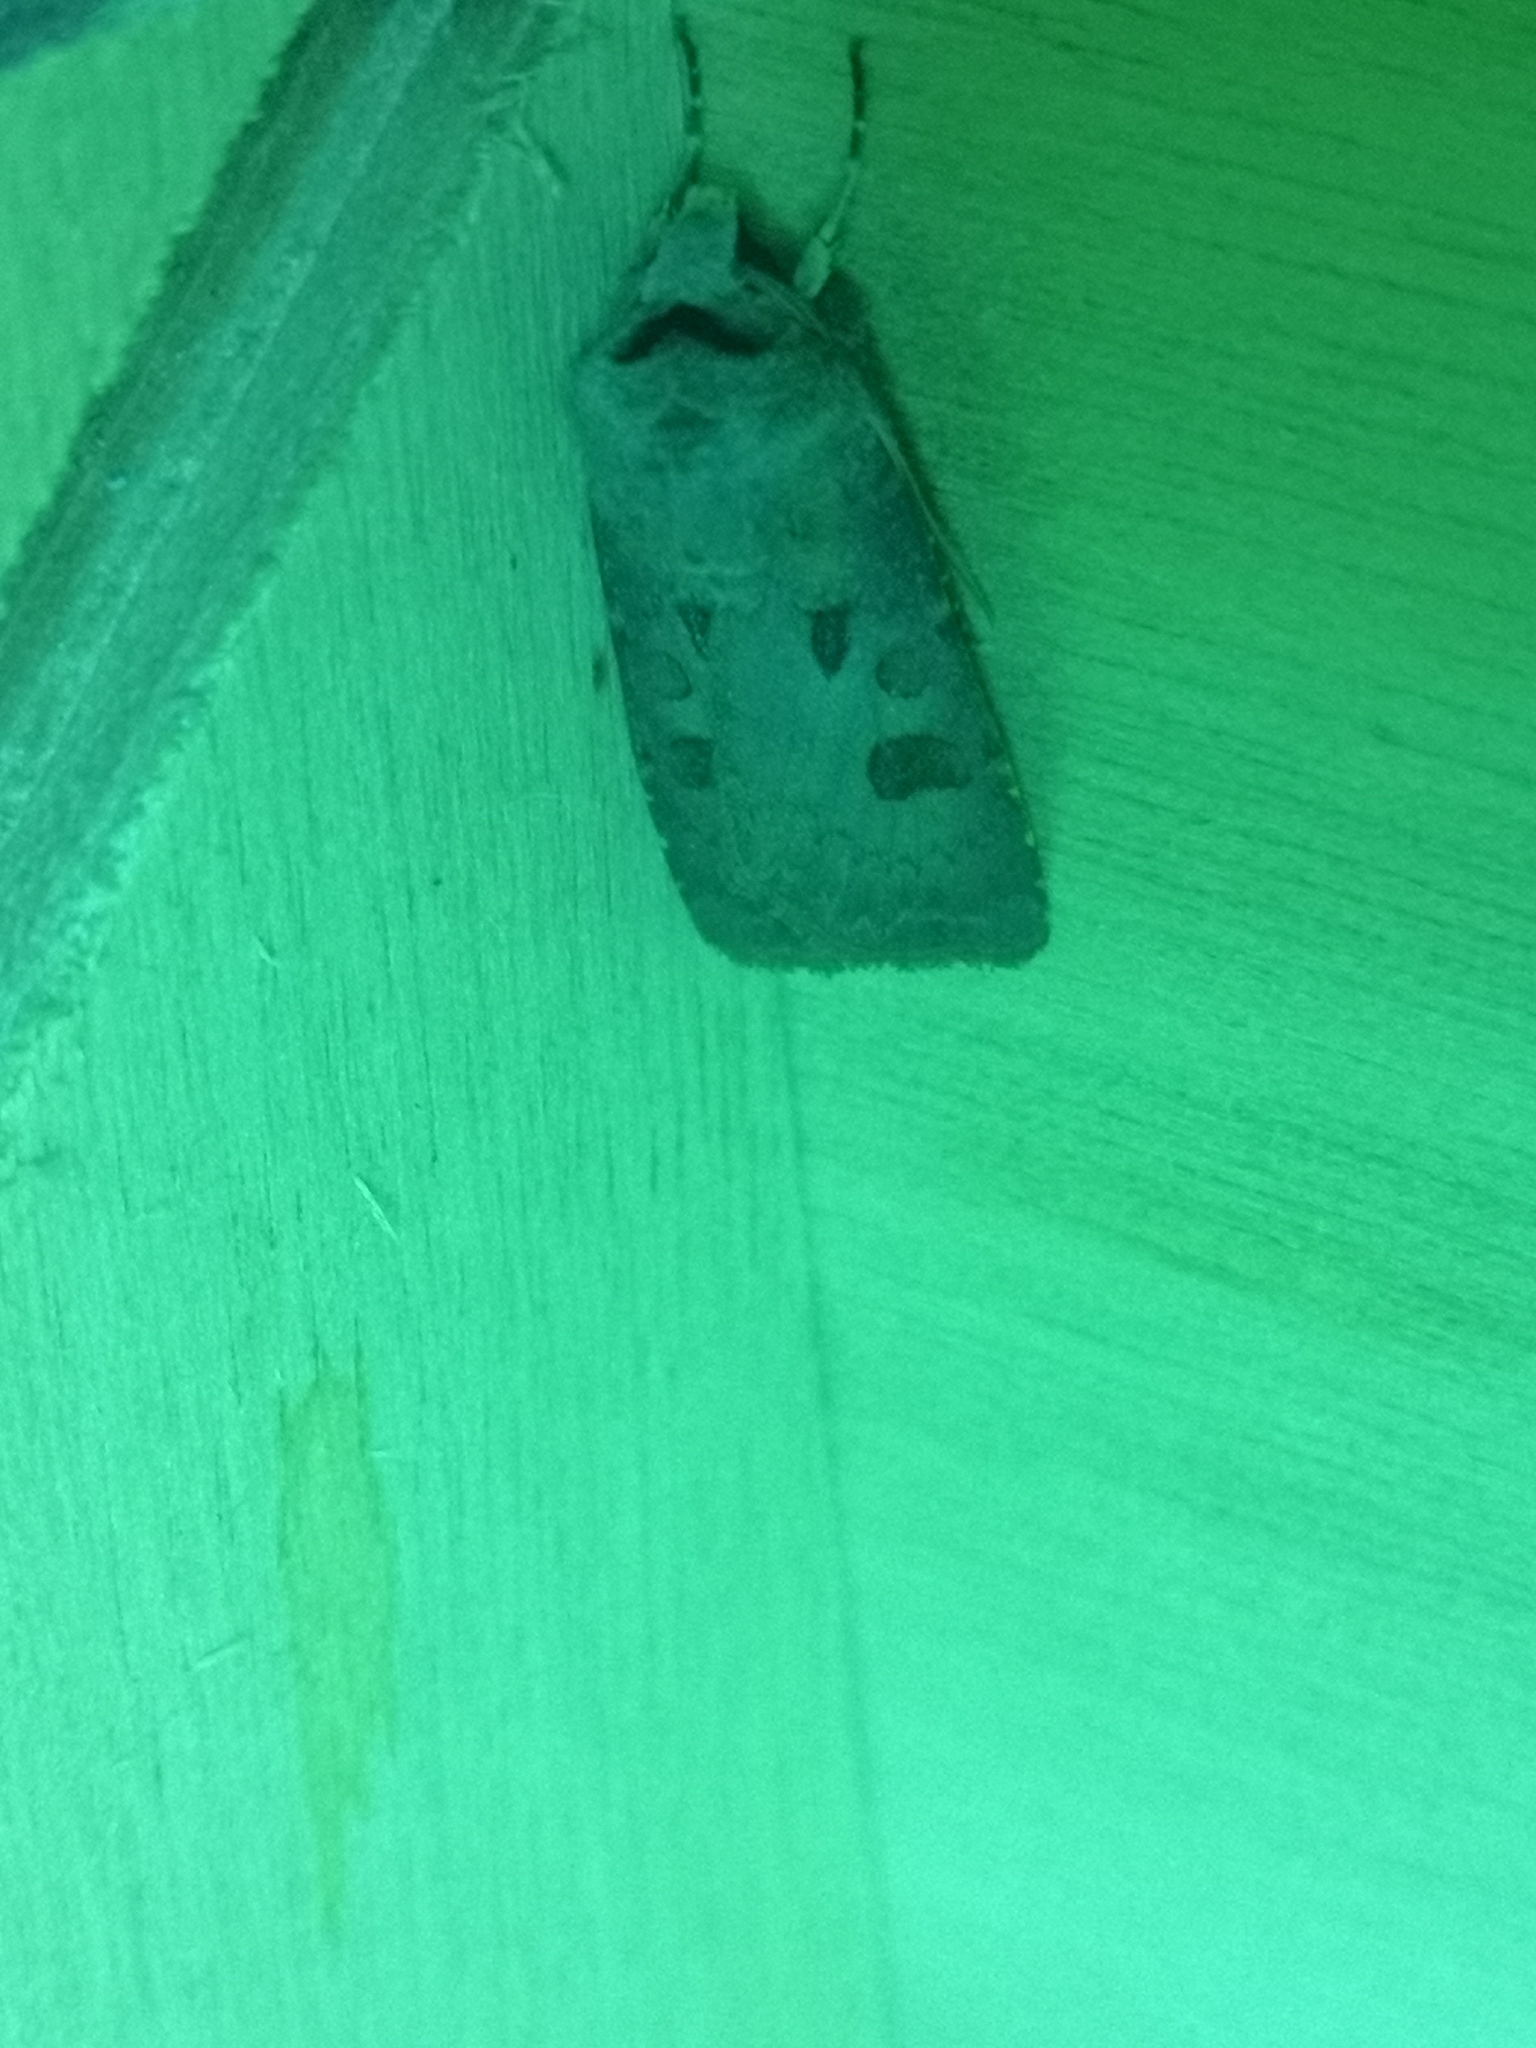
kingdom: Animalia
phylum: Arthropoda
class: Insecta
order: Lepidoptera
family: Noctuidae
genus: Agrotis
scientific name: Agrotis exclamationis
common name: Heart and dart
